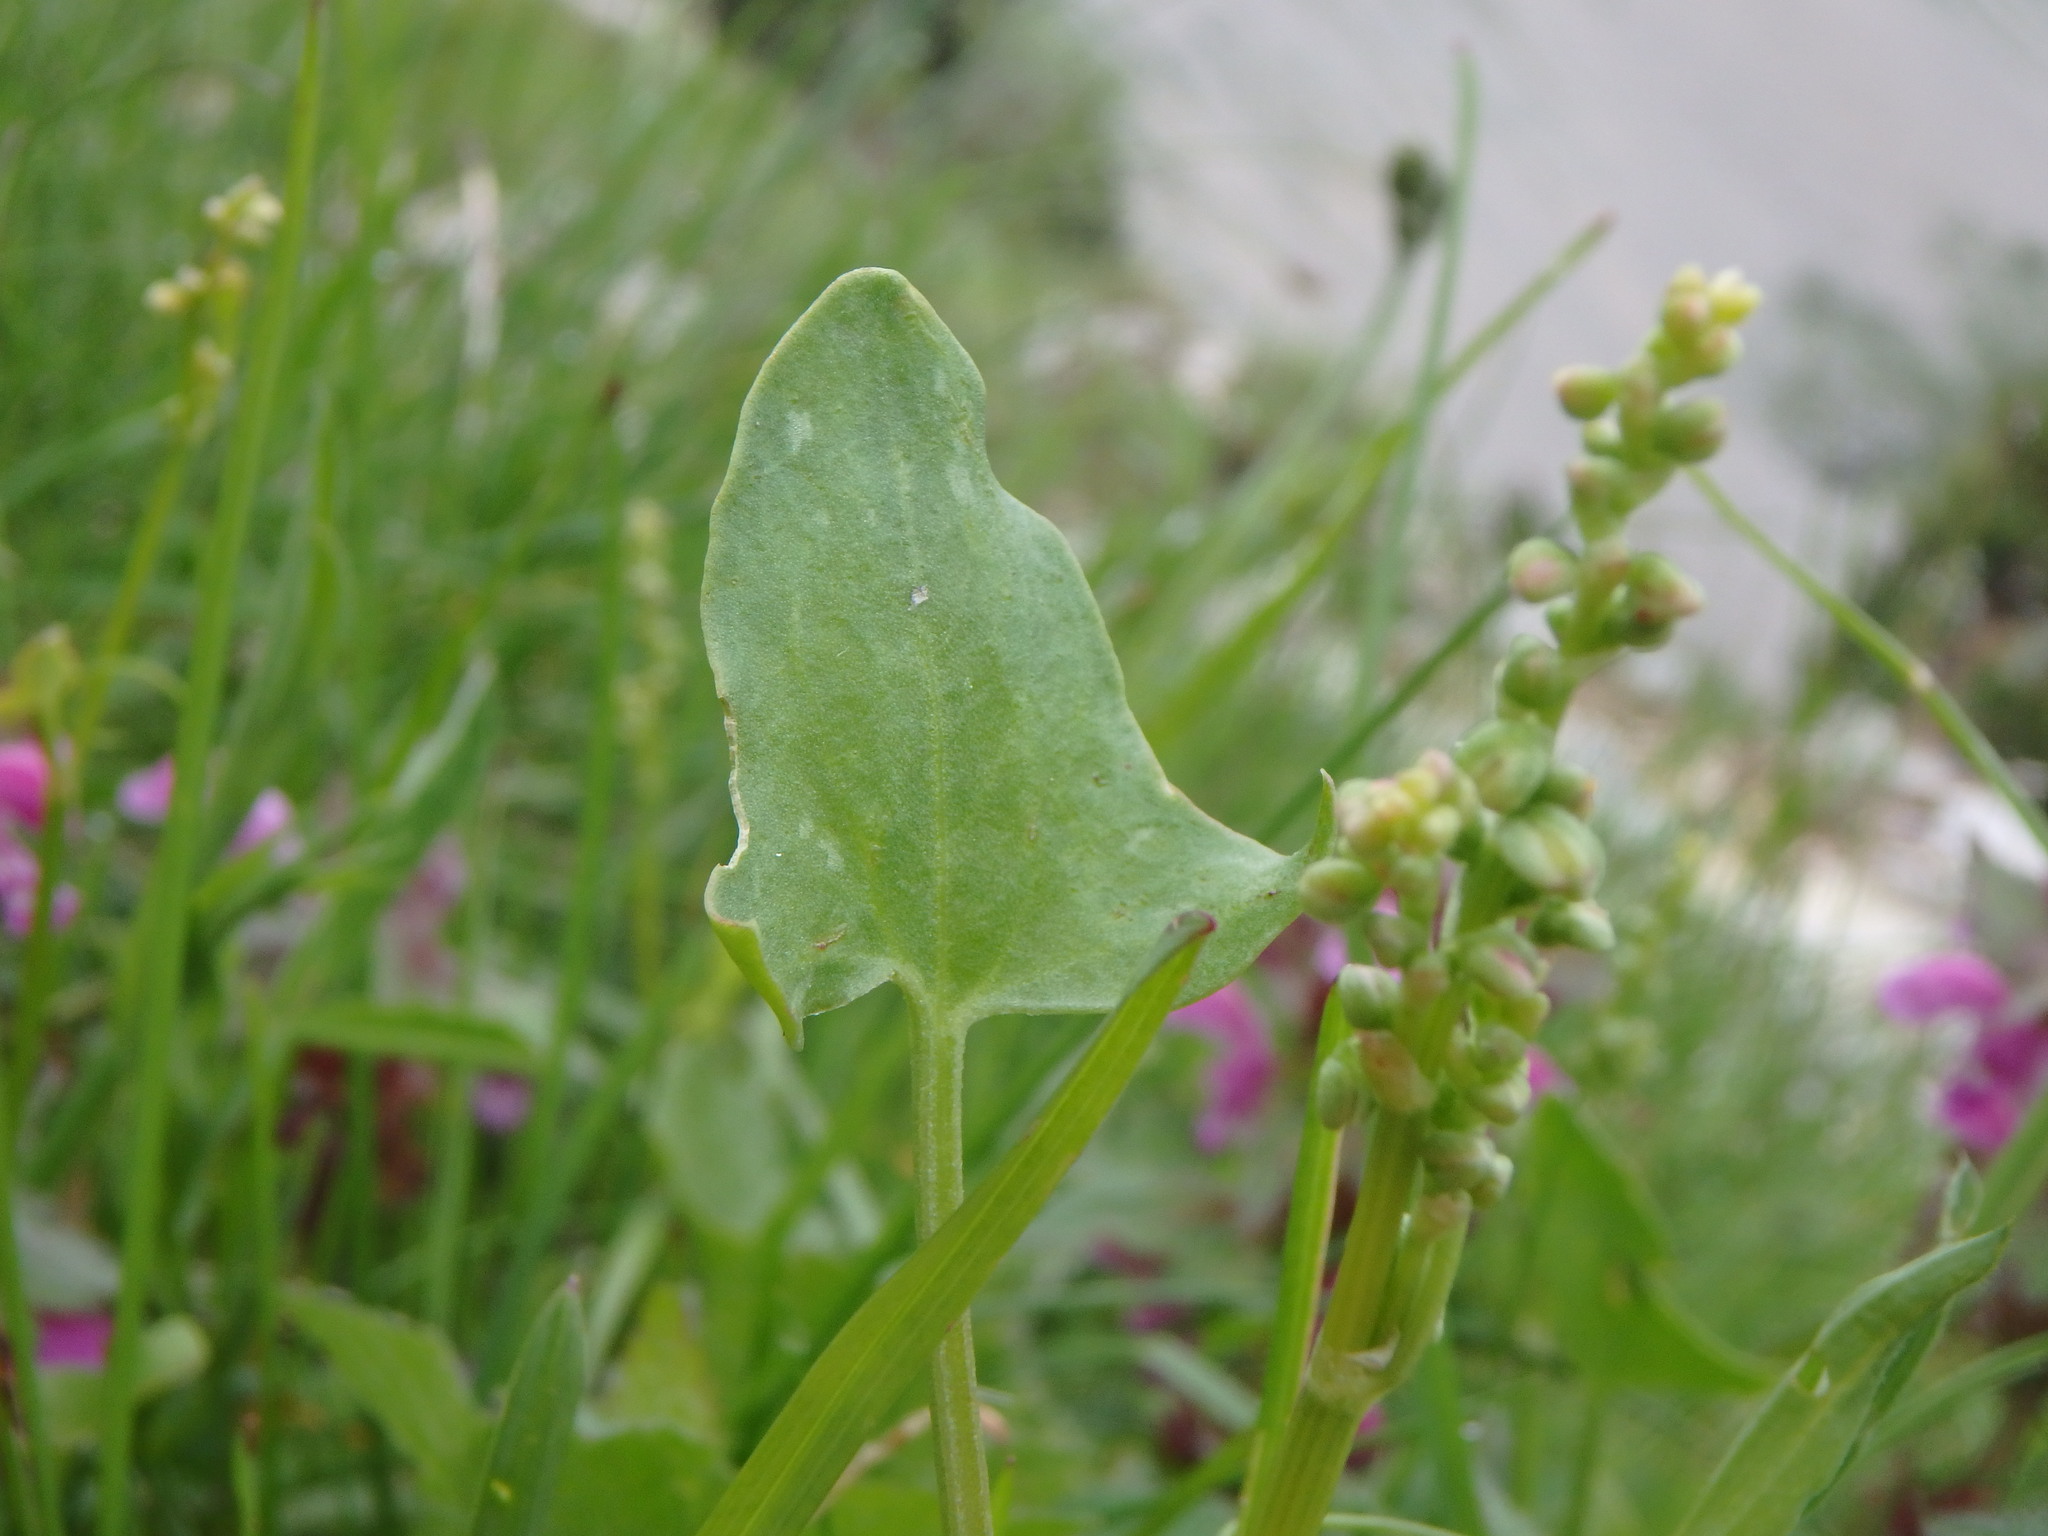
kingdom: Plantae
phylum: Tracheophyta
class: Magnoliopsida
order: Caryophyllales
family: Polygonaceae
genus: Rumex
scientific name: Rumex scutatus
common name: French sorrel
